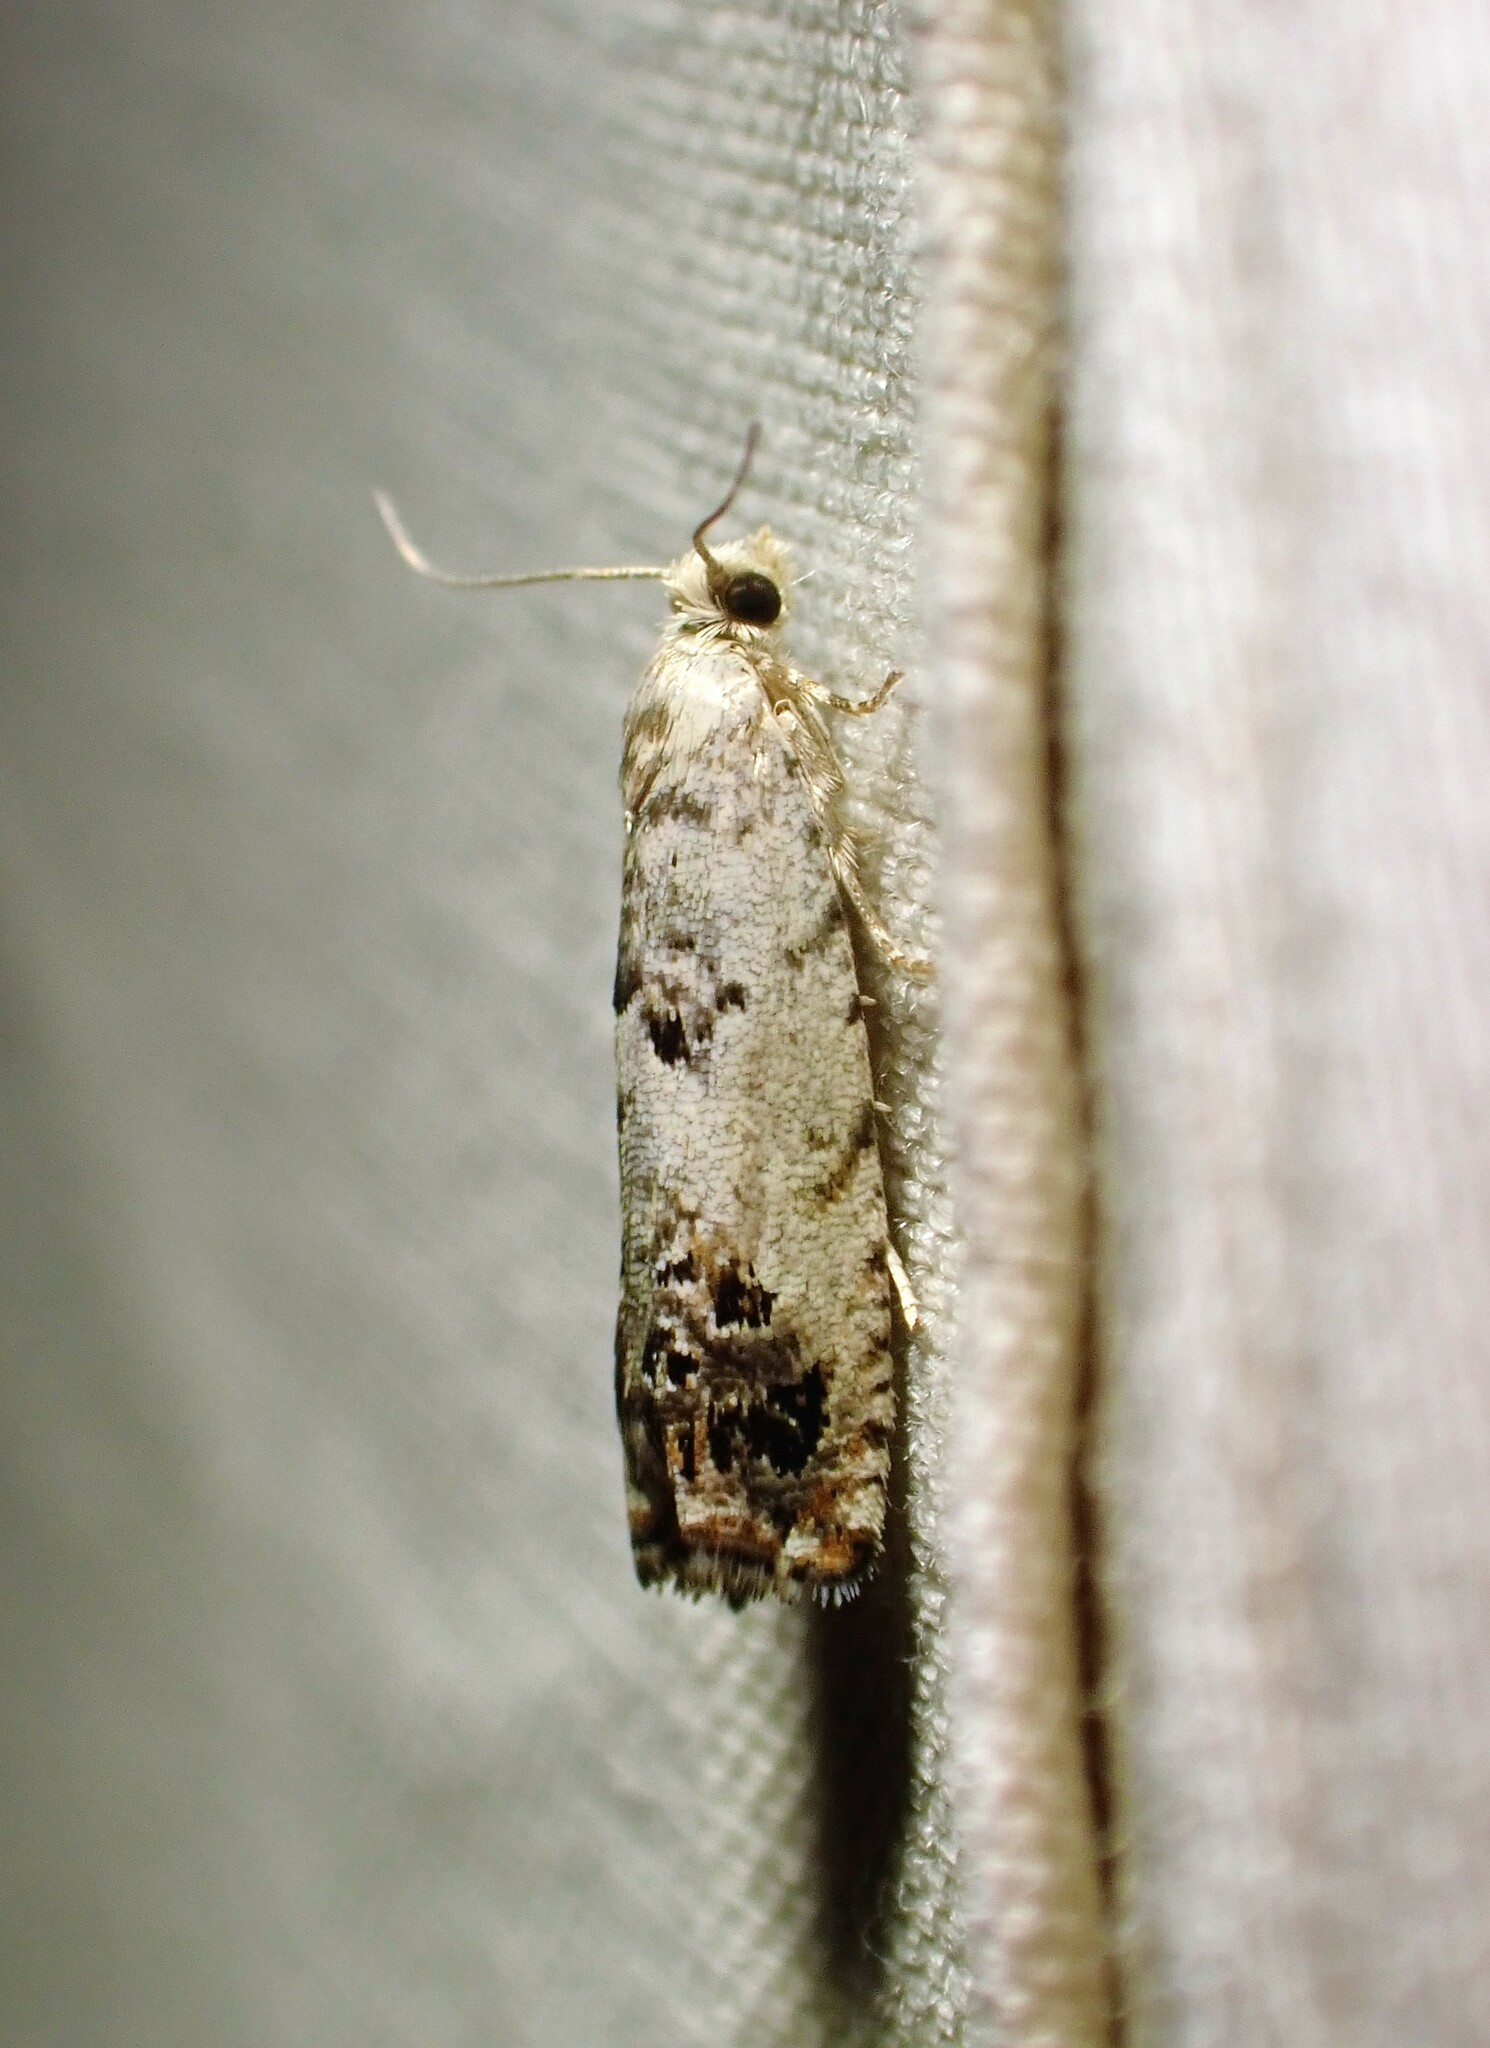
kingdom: Animalia
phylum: Arthropoda
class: Insecta
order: Lepidoptera
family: Tortricidae
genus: Eucosma
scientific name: Eucosma ornatula
